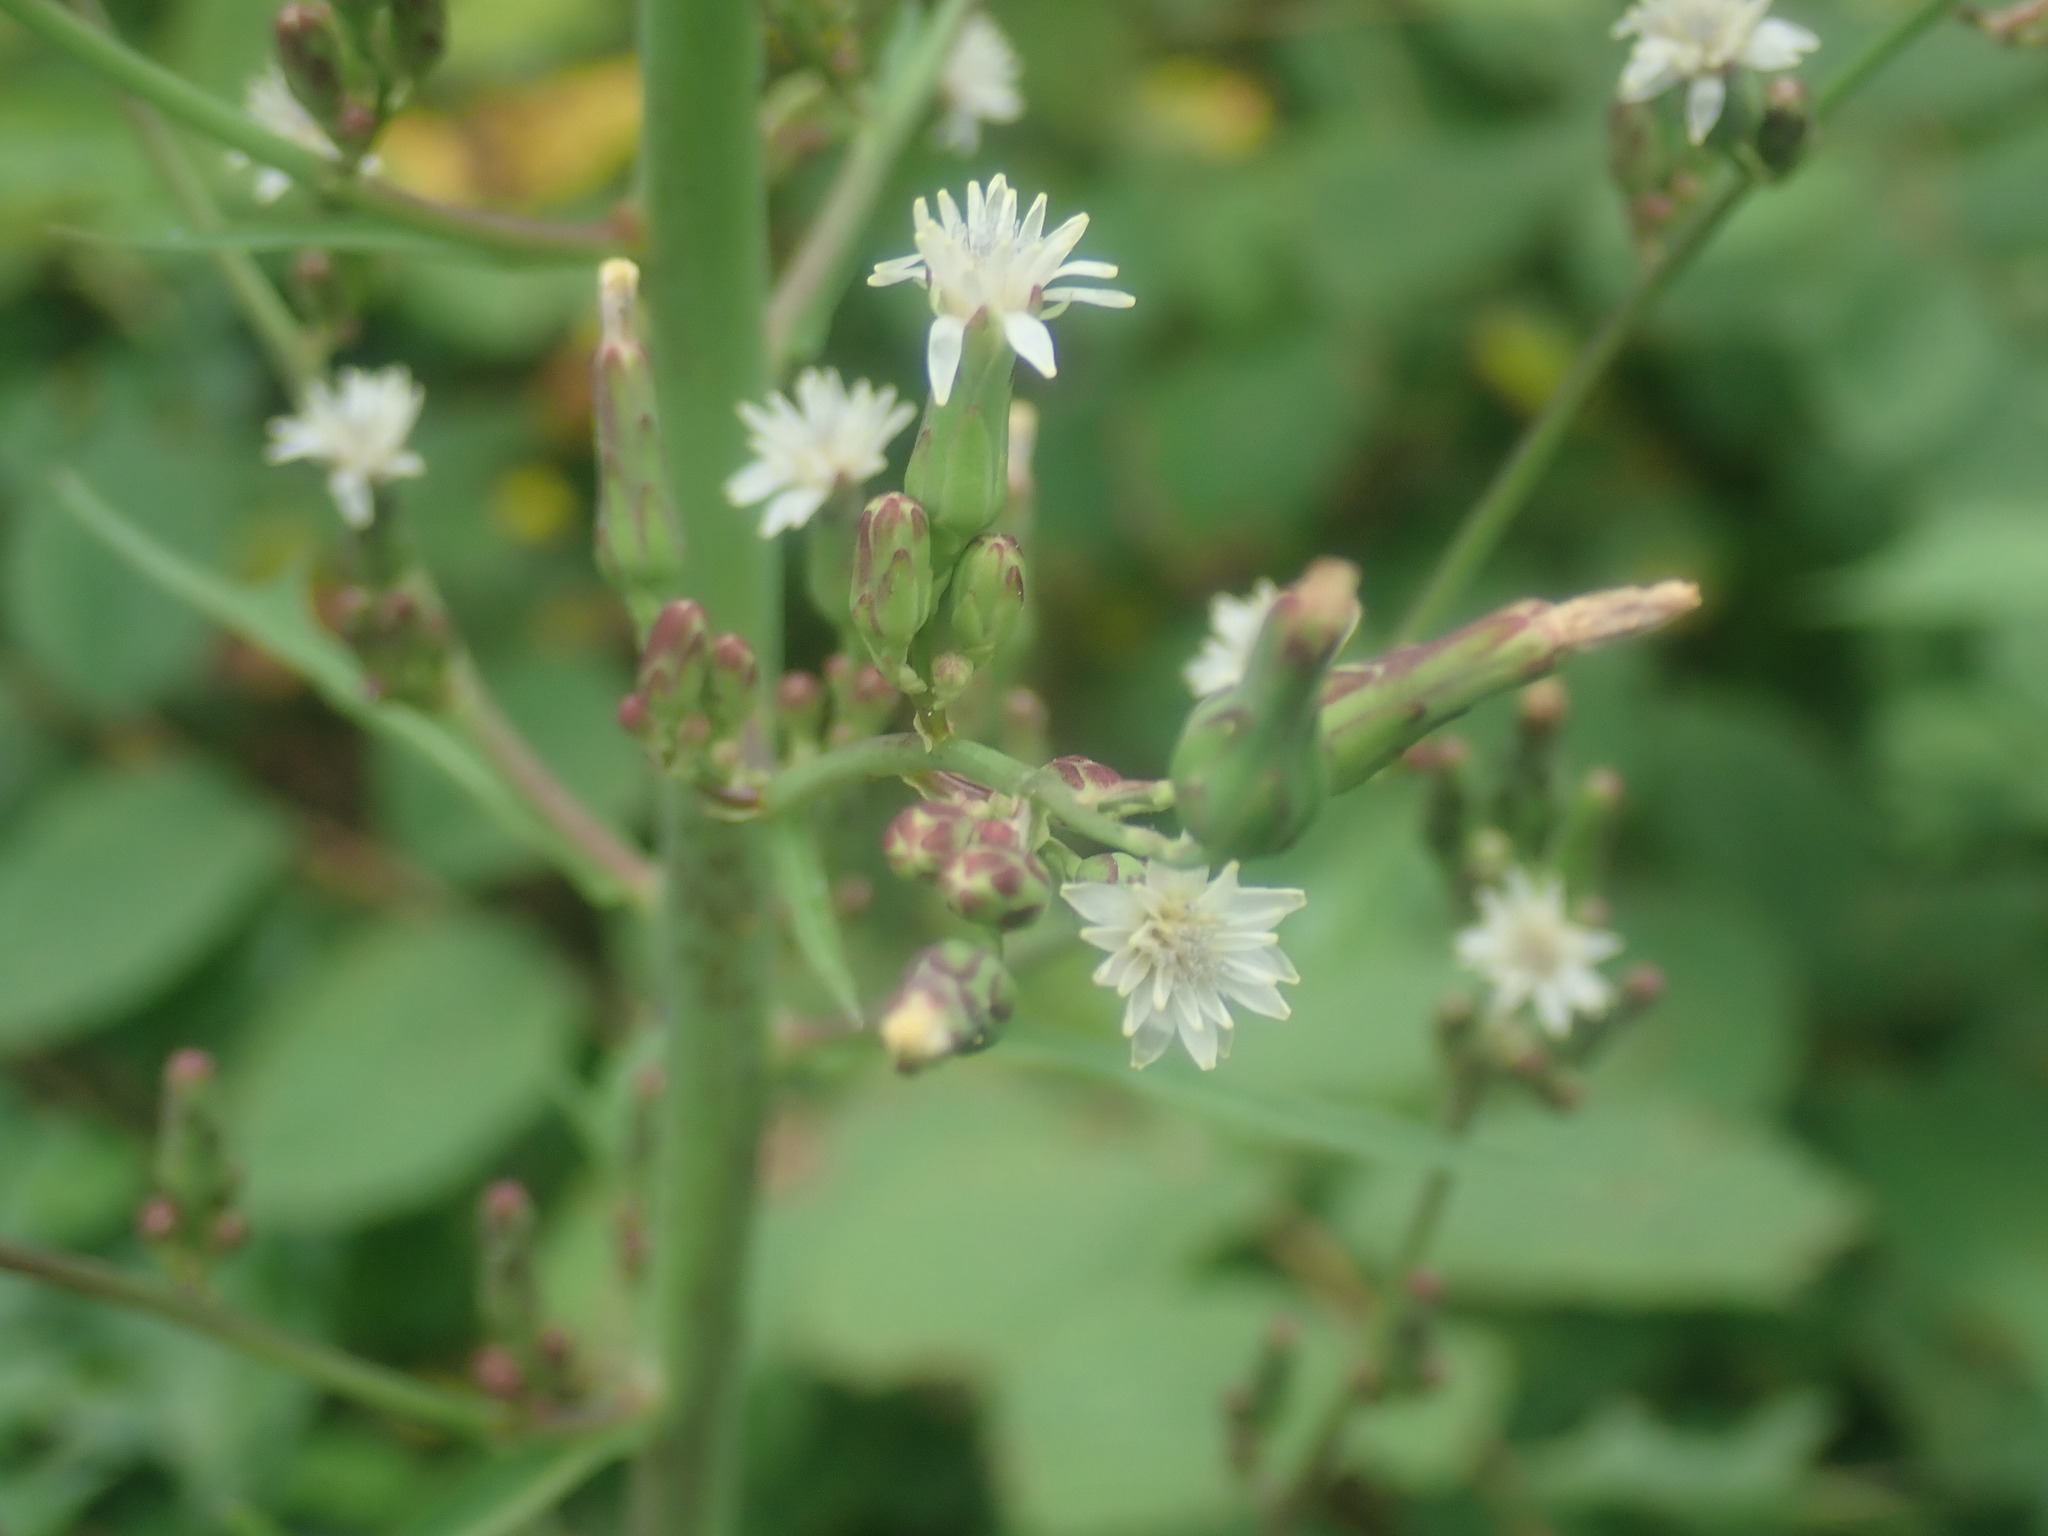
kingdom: Plantae
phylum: Tracheophyta
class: Magnoliopsida
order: Asterales
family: Asteraceae
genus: Lactuca
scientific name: Lactuca biennis
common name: Blue wood lettuce
